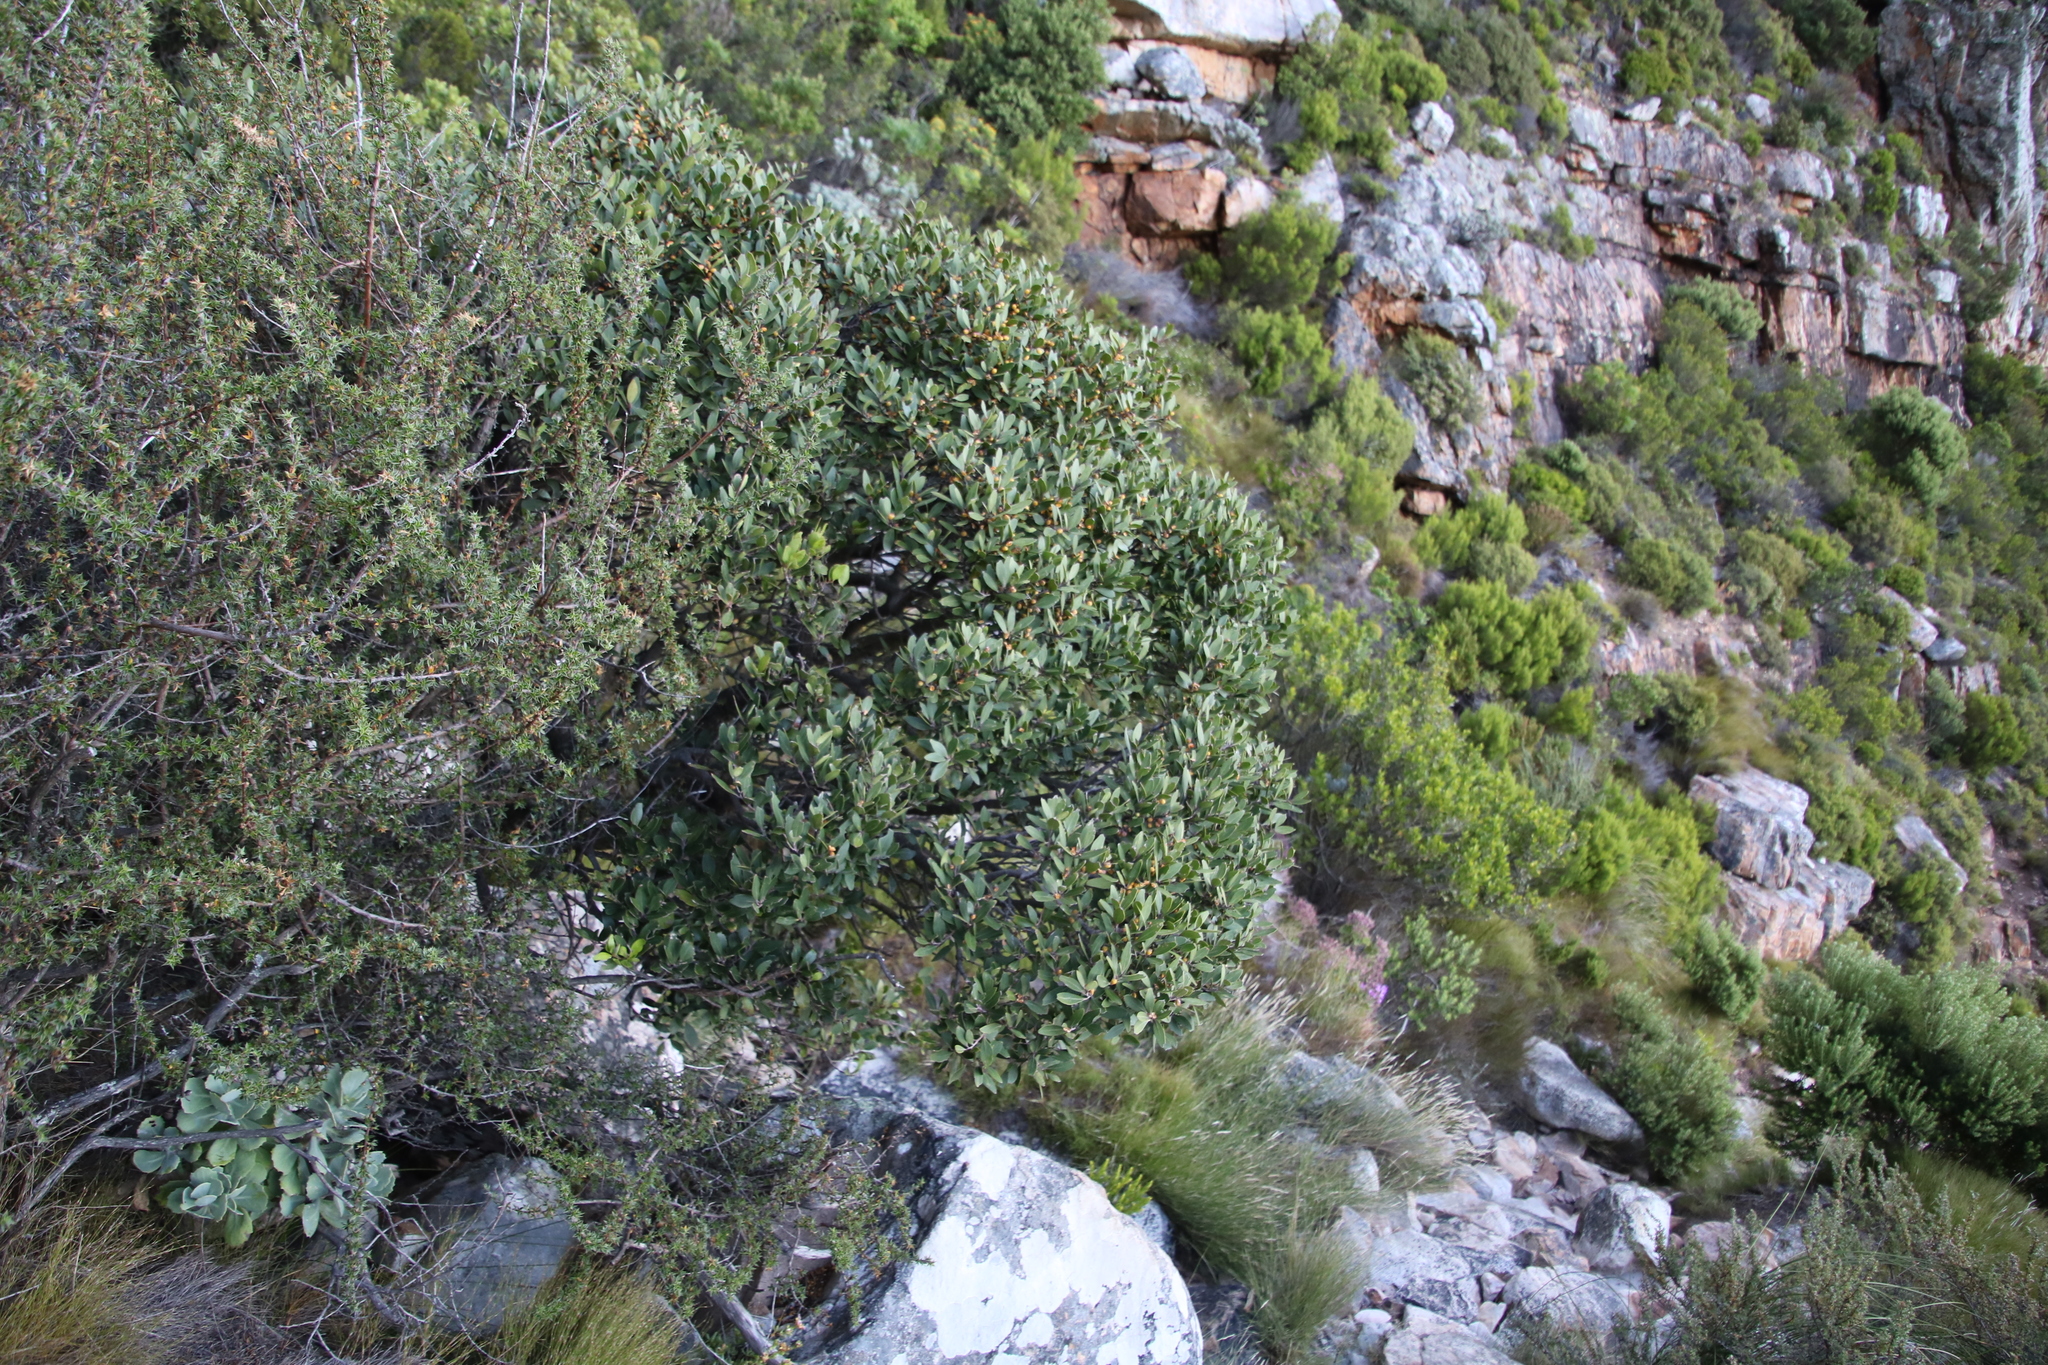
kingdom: Plantae
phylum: Tracheophyta
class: Magnoliopsida
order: Celastrales
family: Celastraceae
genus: Gymnosporia
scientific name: Gymnosporia laurina
